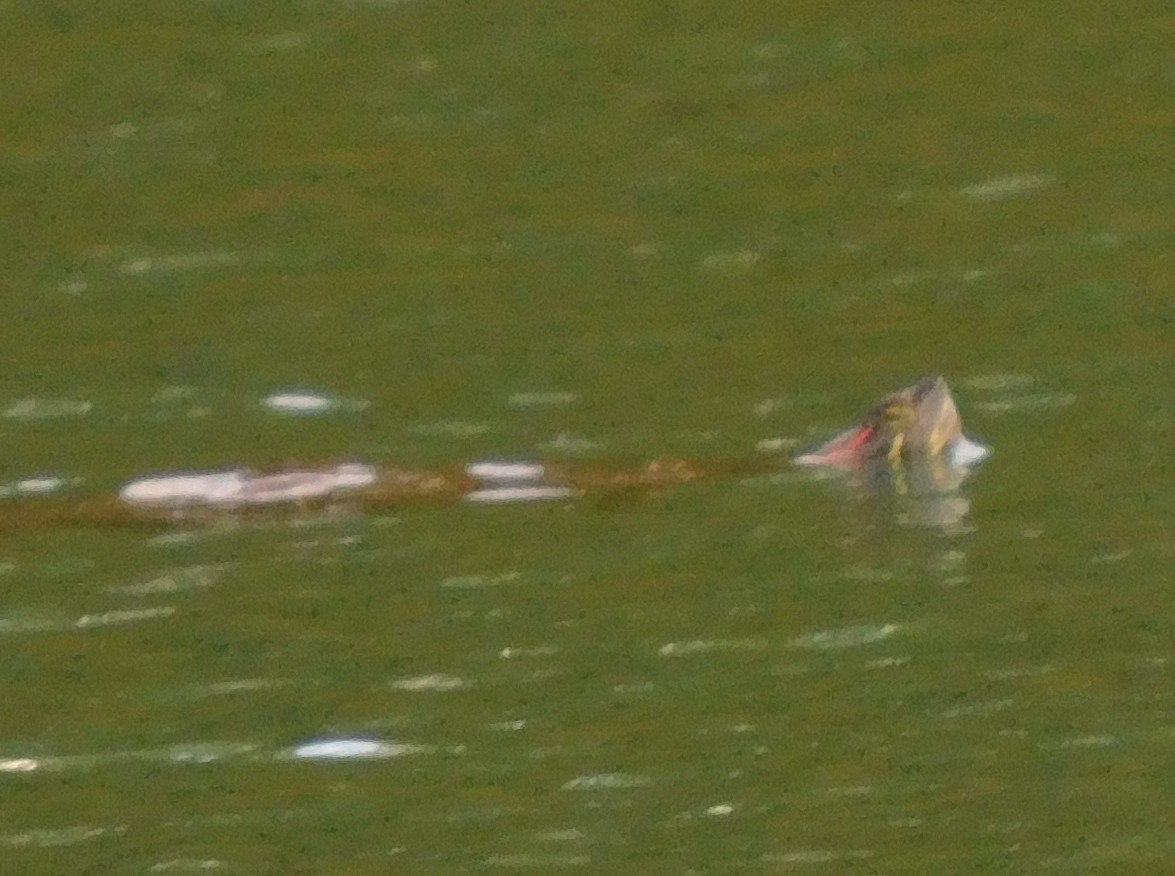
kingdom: Animalia
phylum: Chordata
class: Testudines
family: Emydidae
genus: Trachemys
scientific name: Trachemys scripta
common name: Slider
